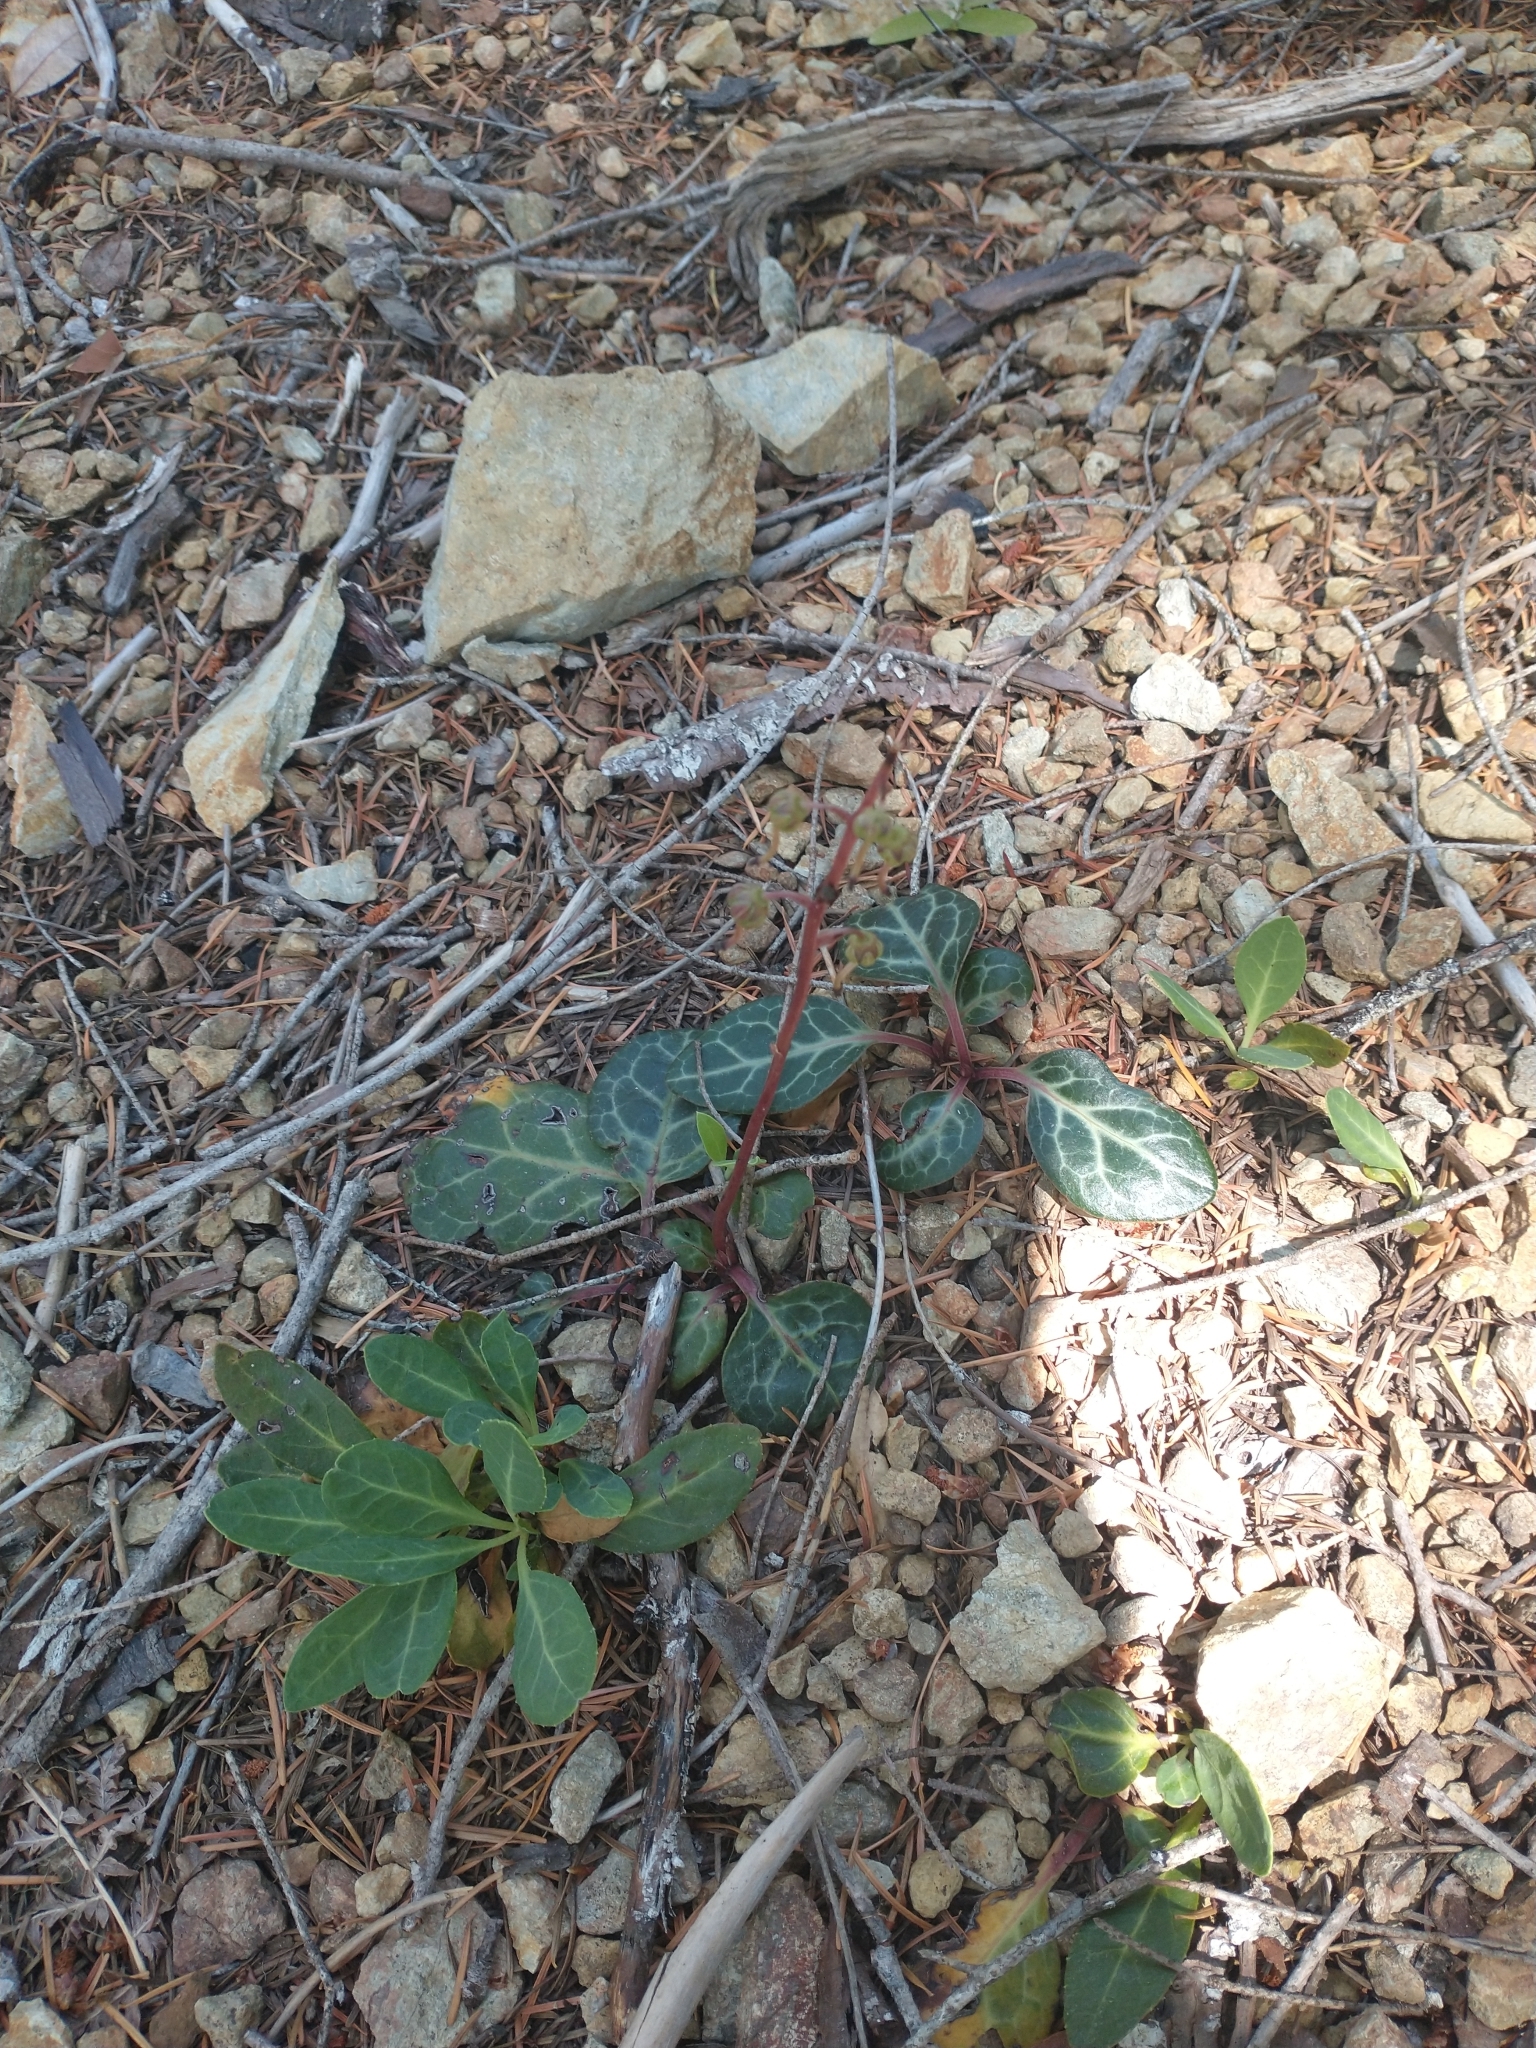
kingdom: Plantae
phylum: Tracheophyta
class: Magnoliopsida
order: Ericales
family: Ericaceae
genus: Pyrola
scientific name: Pyrola dentata
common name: Tooth-leaved wintergreen
